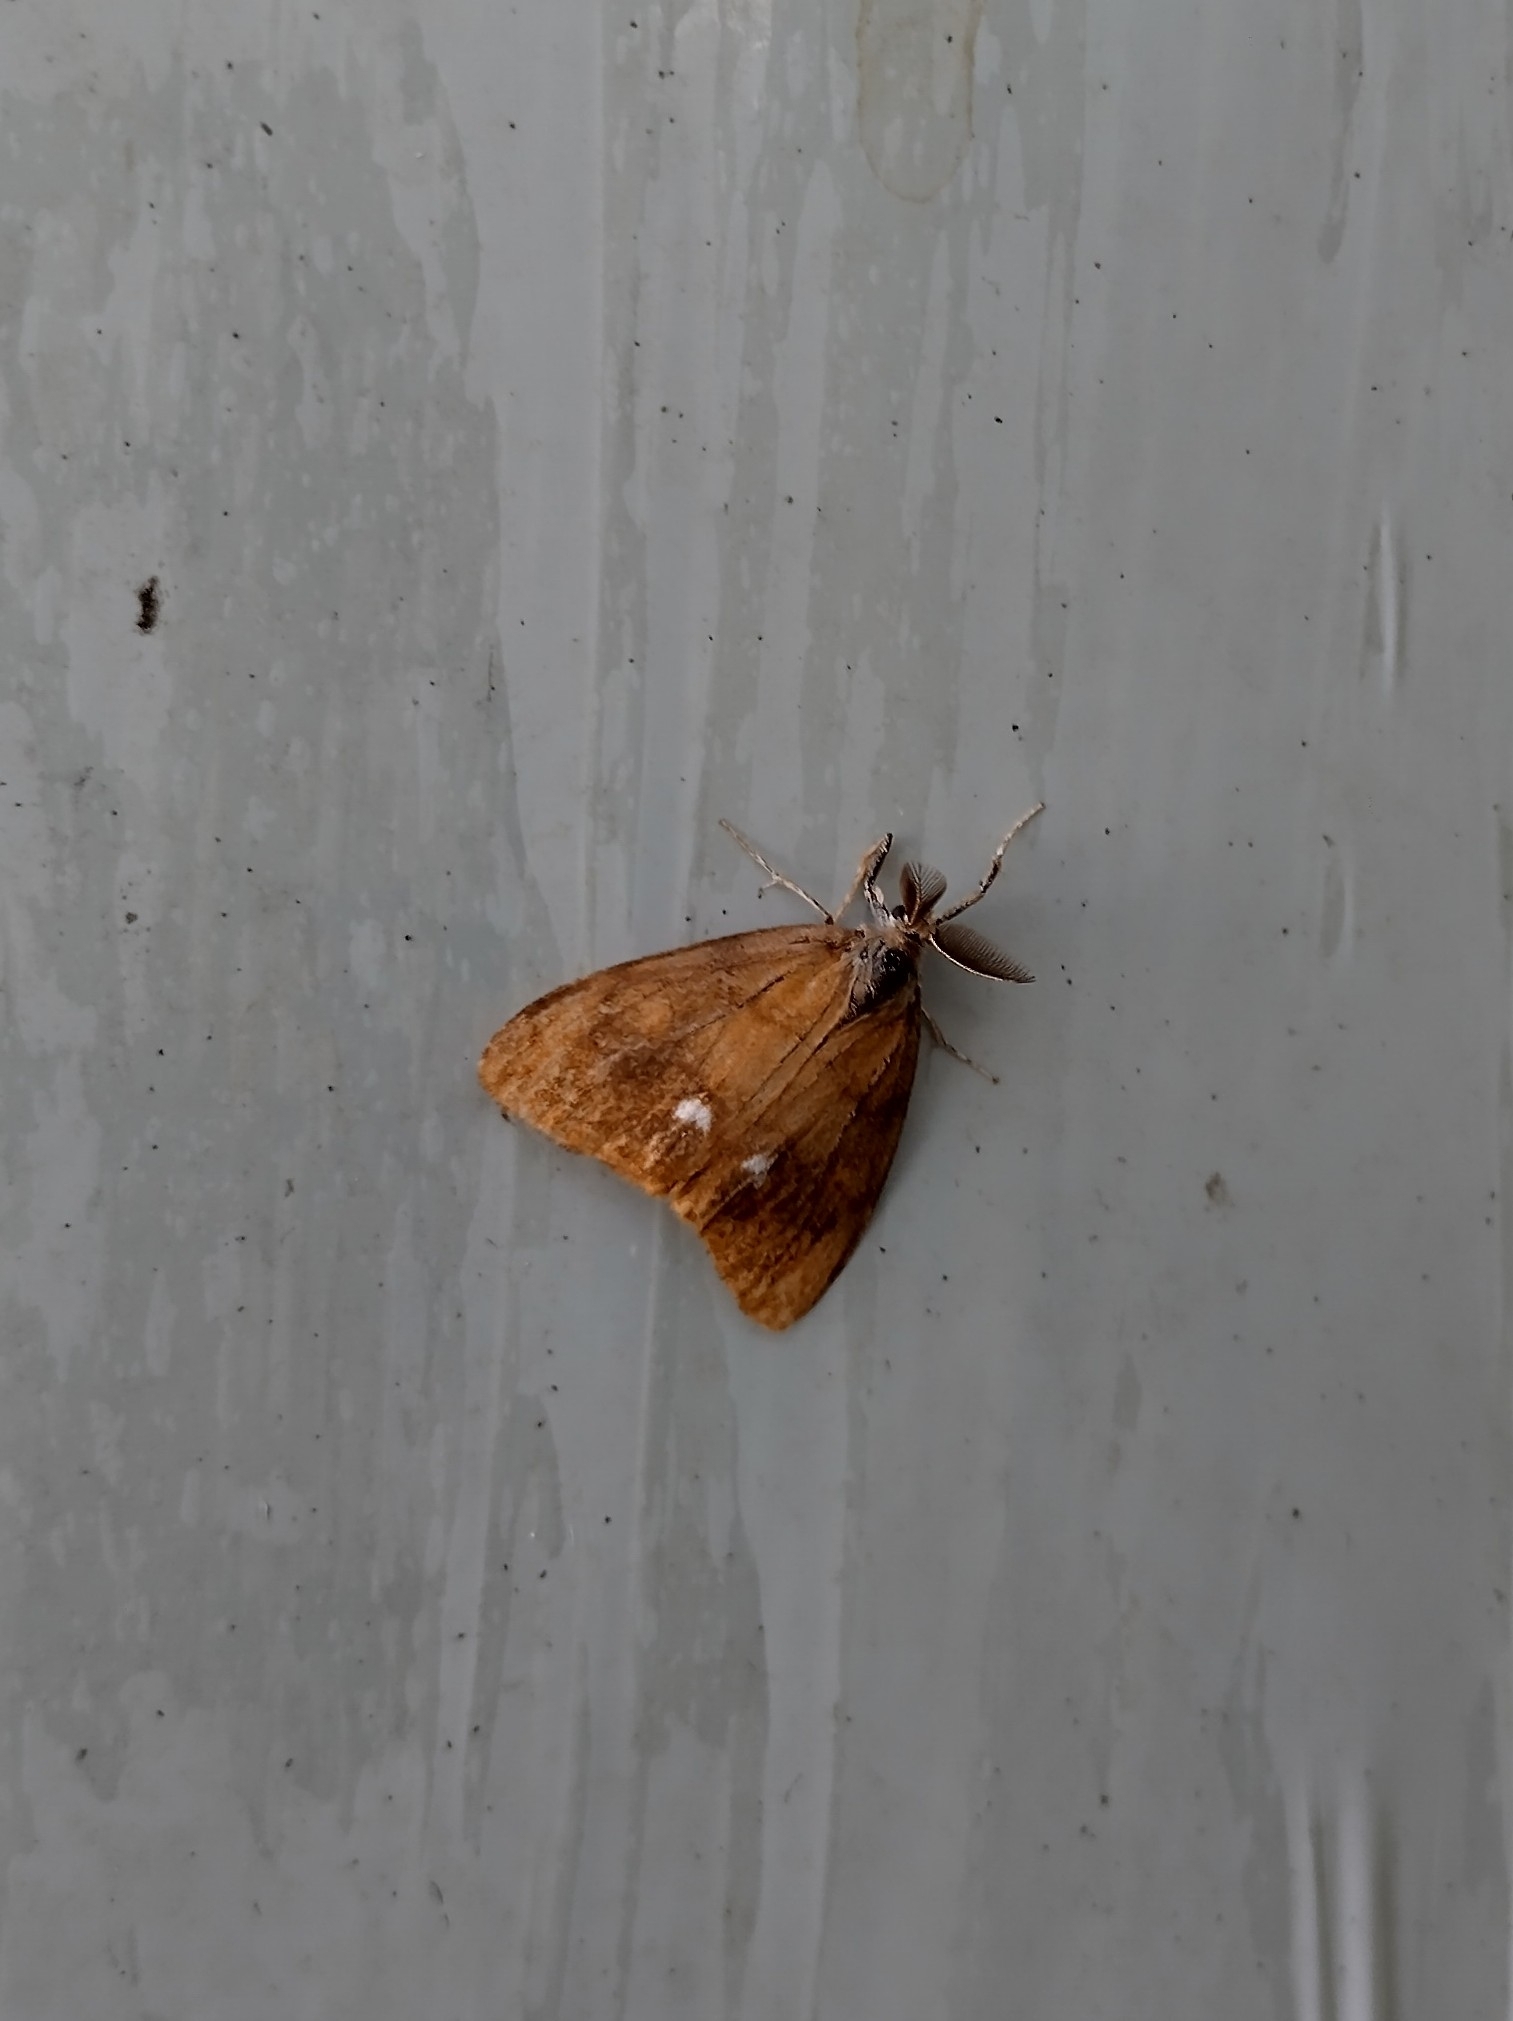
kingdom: Animalia
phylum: Arthropoda
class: Insecta
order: Lepidoptera
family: Erebidae
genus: Orgyia
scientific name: Orgyia antiqua
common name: Vapourer
